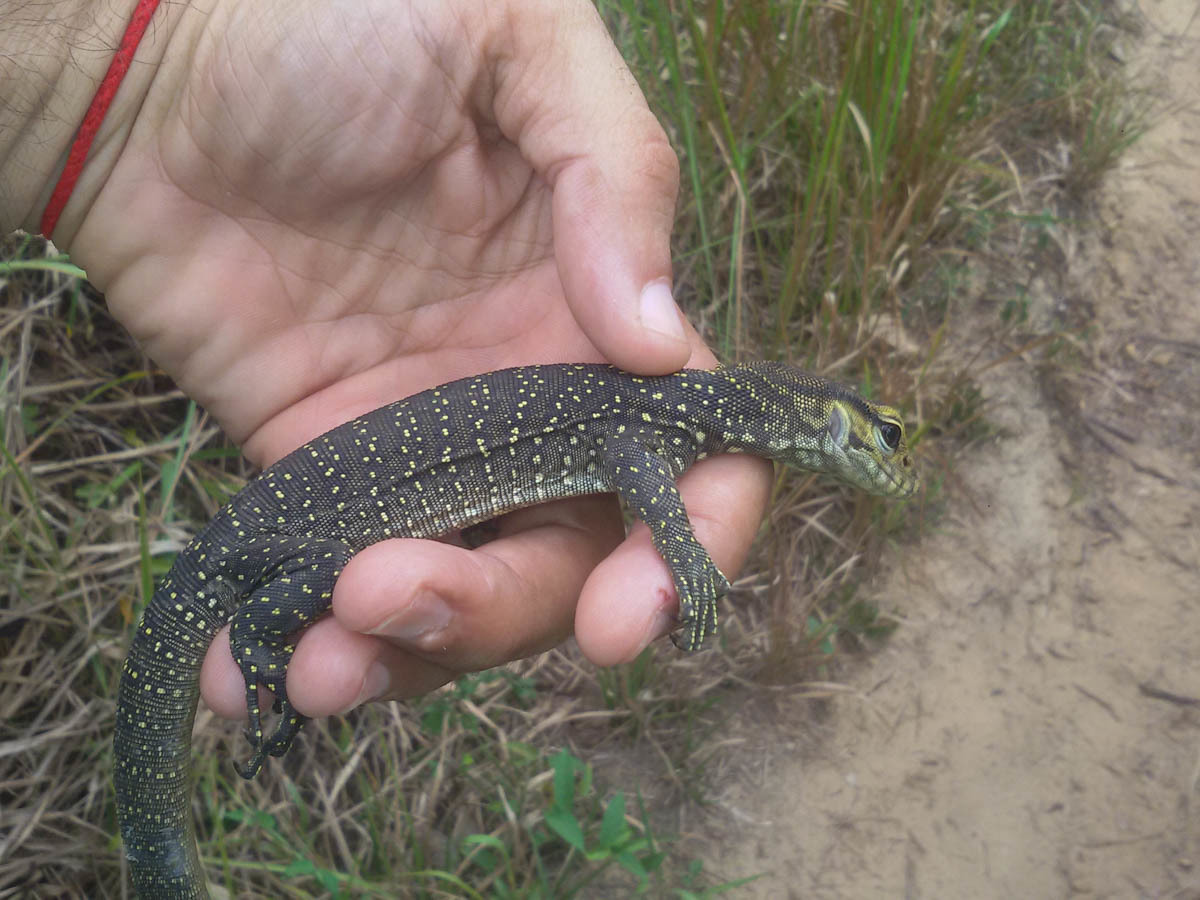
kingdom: Animalia
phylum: Chordata
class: Squamata
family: Varanidae
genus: Varanus
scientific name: Varanus nebulosus
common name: Clouded monitor
